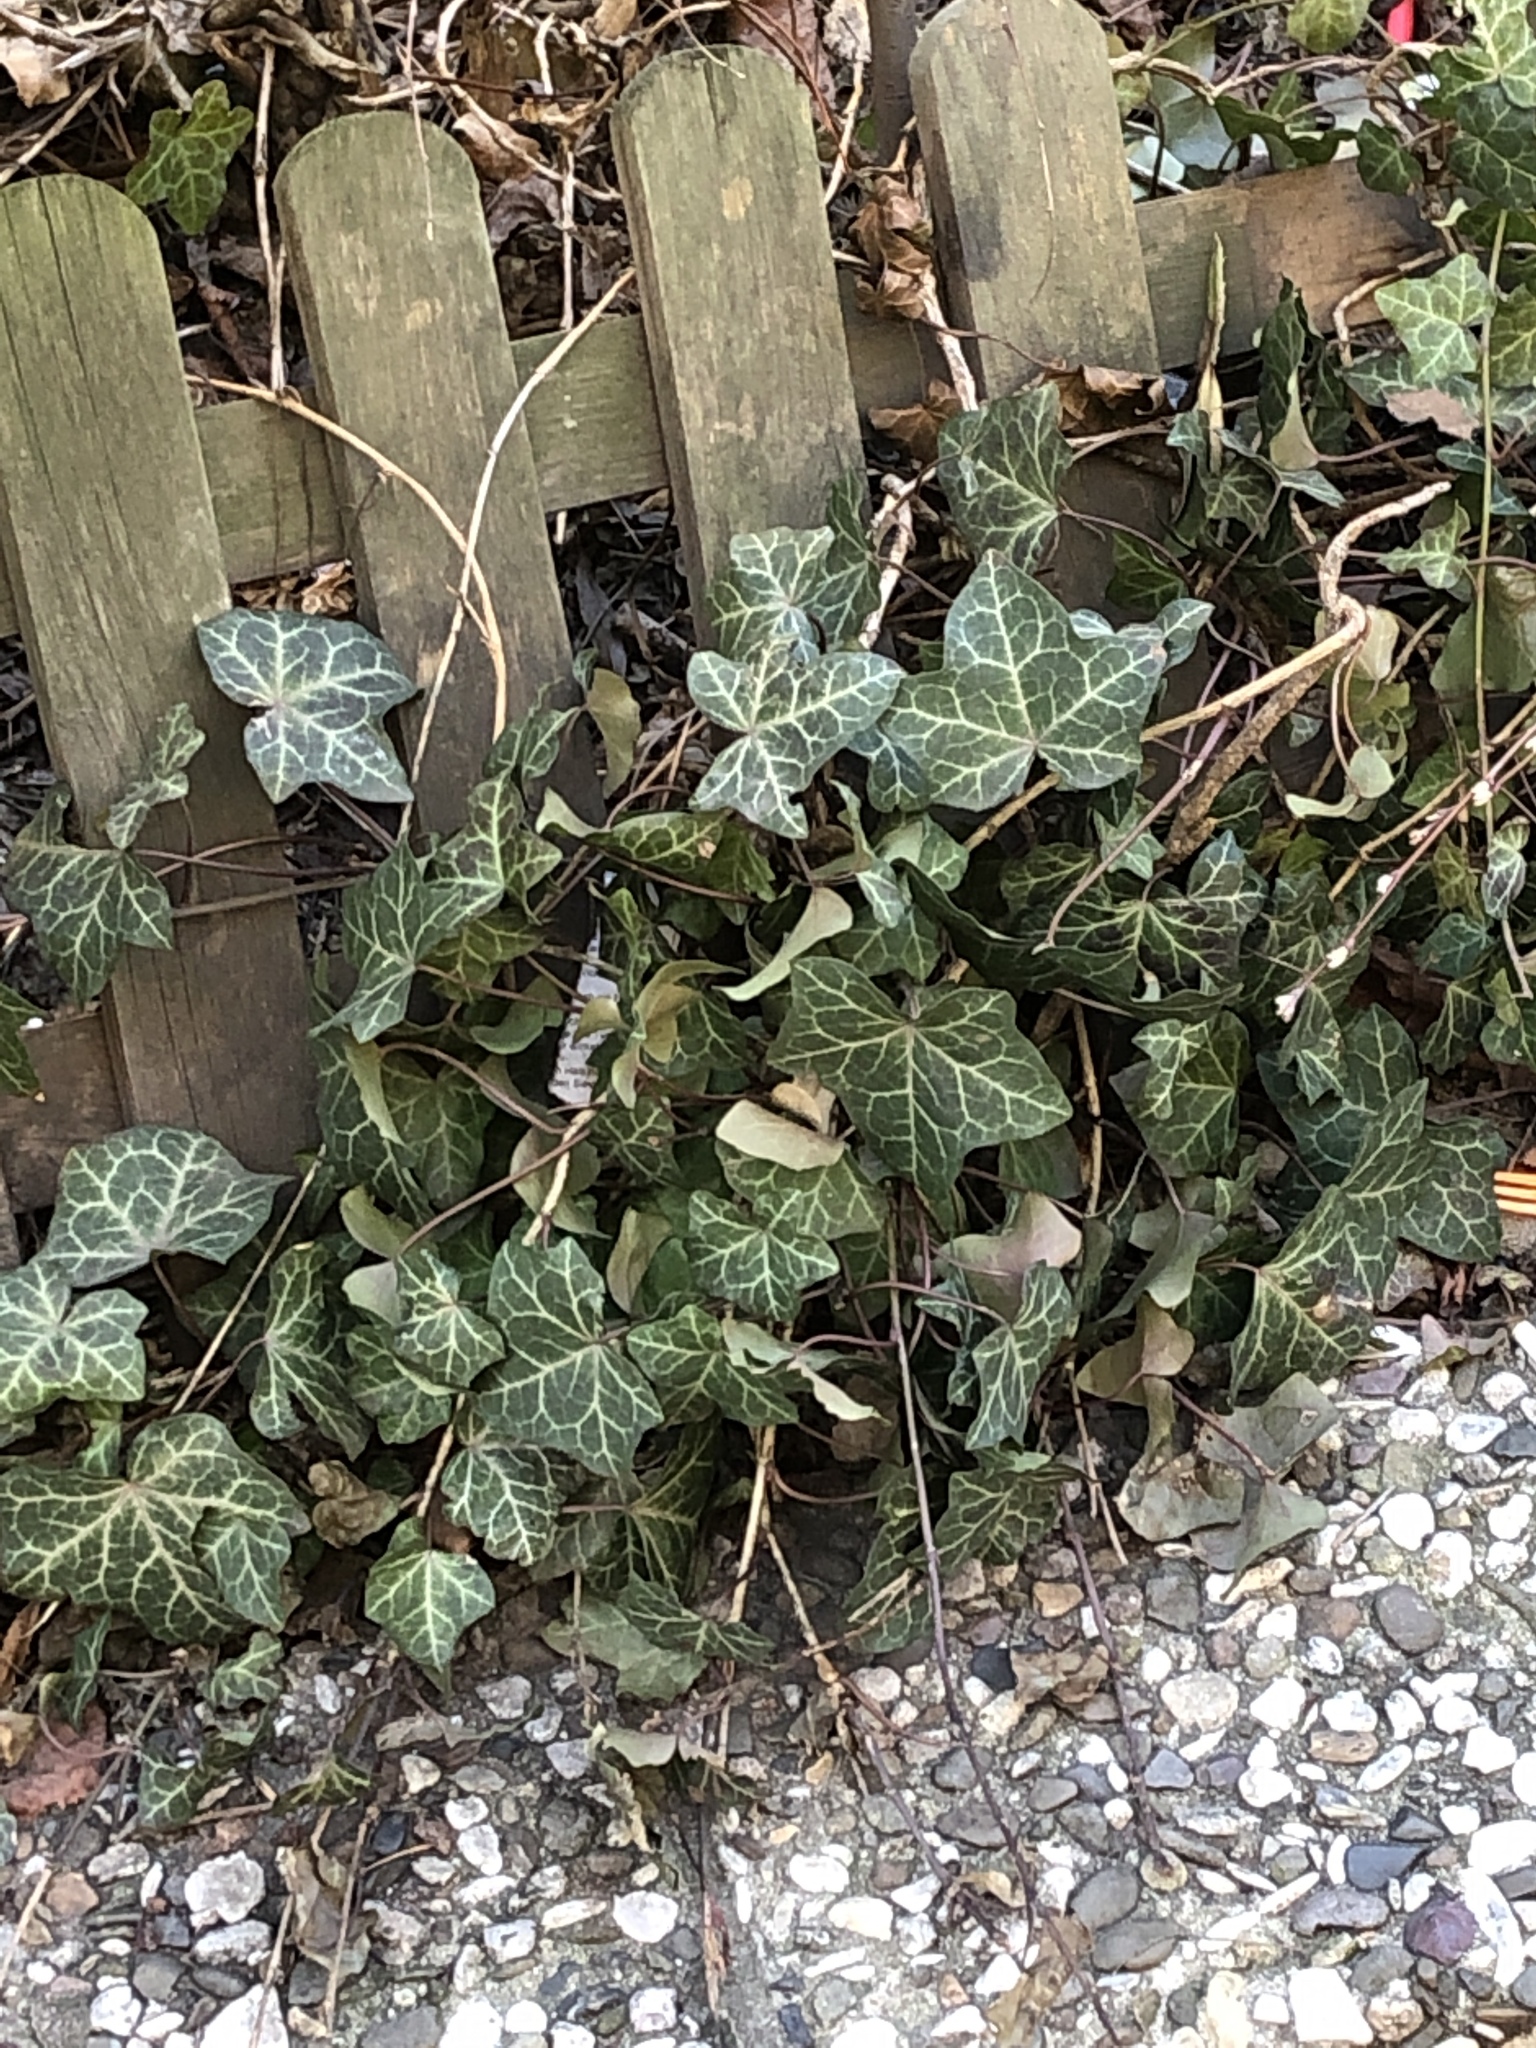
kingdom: Plantae
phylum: Tracheophyta
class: Magnoliopsida
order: Apiales
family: Araliaceae
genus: Hedera
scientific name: Hedera helix
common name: Ivy
